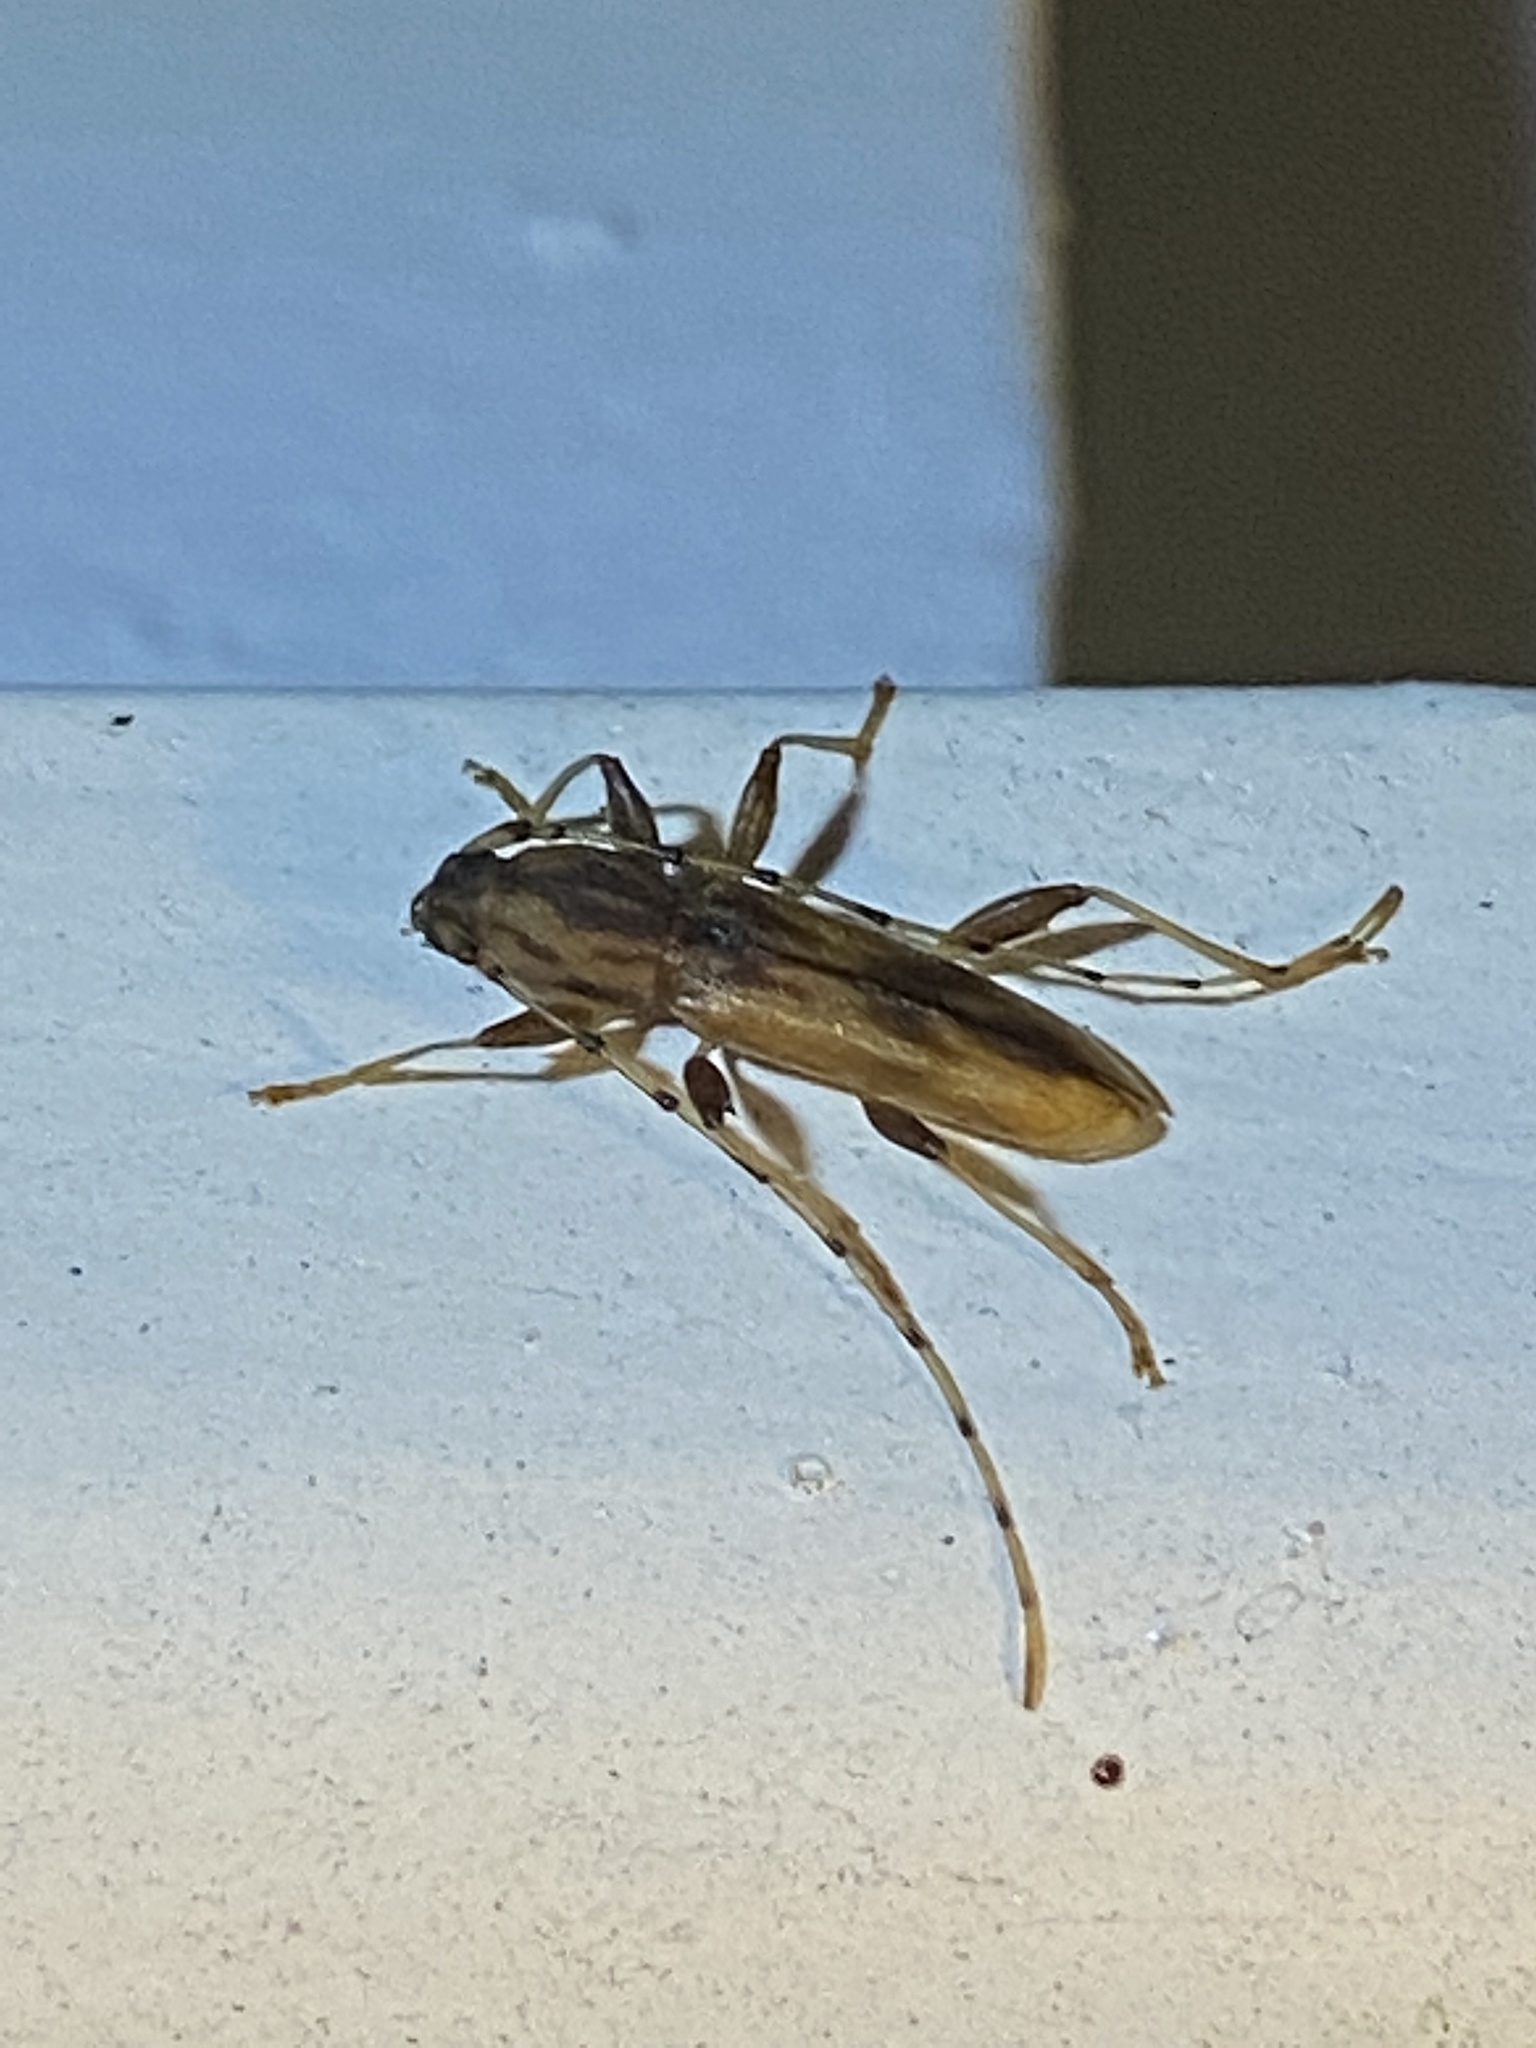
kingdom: Animalia
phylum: Arthropoda
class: Insecta
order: Coleoptera
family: Cerambycidae
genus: Curius
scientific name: Curius dentatus
